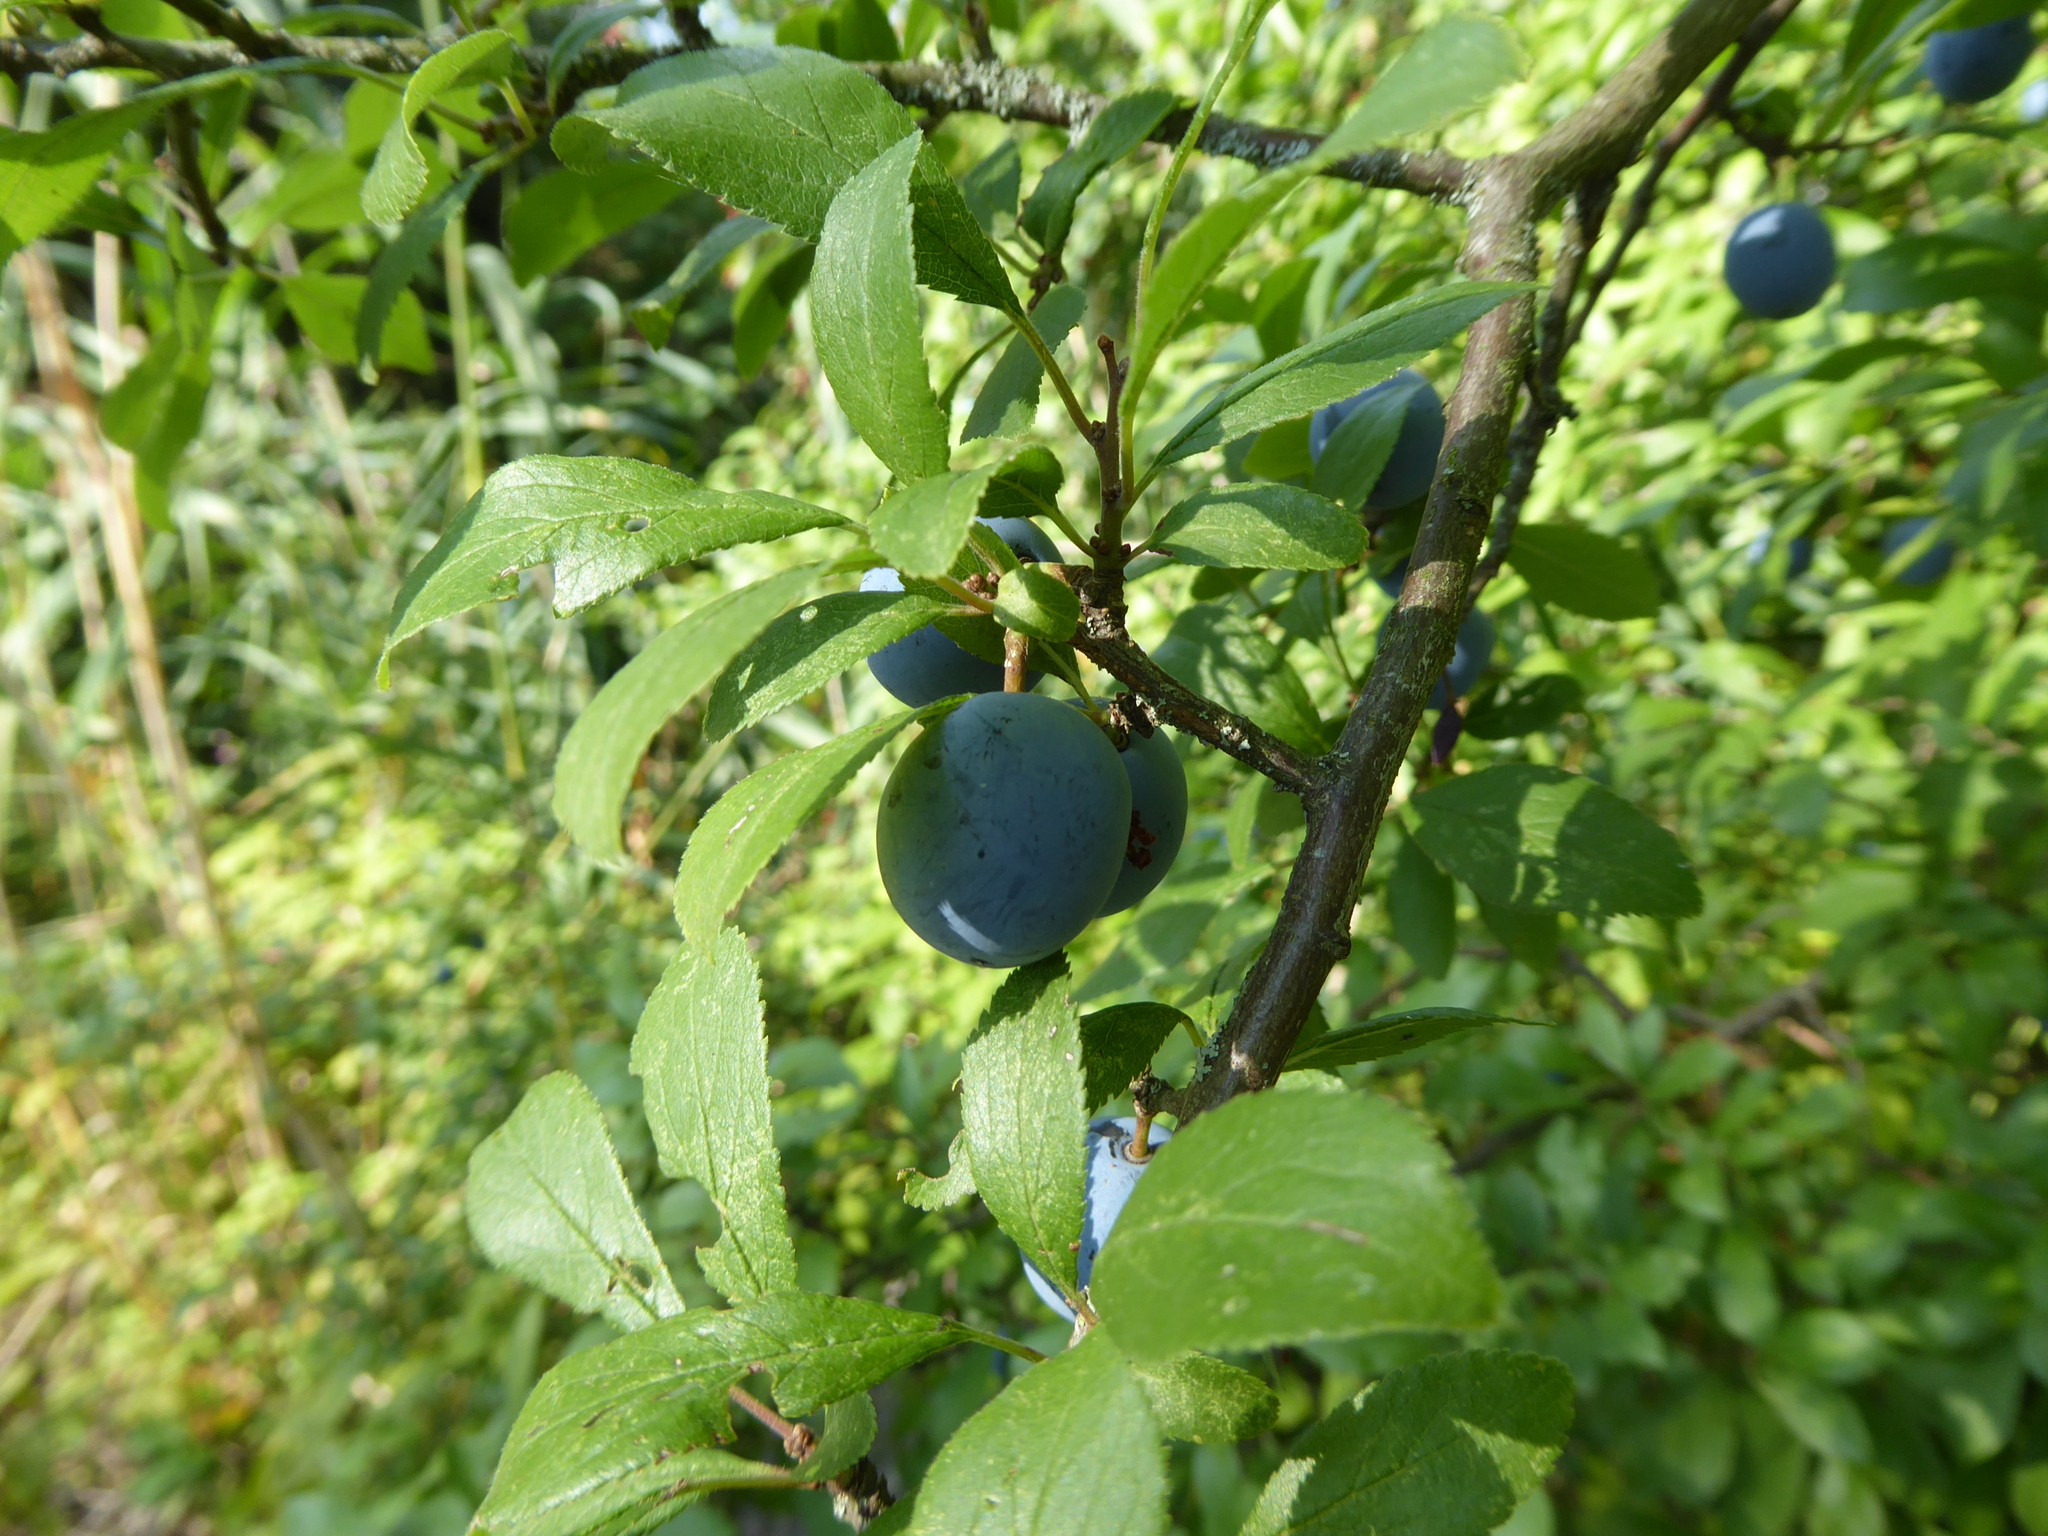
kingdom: Plantae
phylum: Tracheophyta
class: Magnoliopsida
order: Rosales
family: Rosaceae
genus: Prunus
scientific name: Prunus spinosa
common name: Blackthorn
